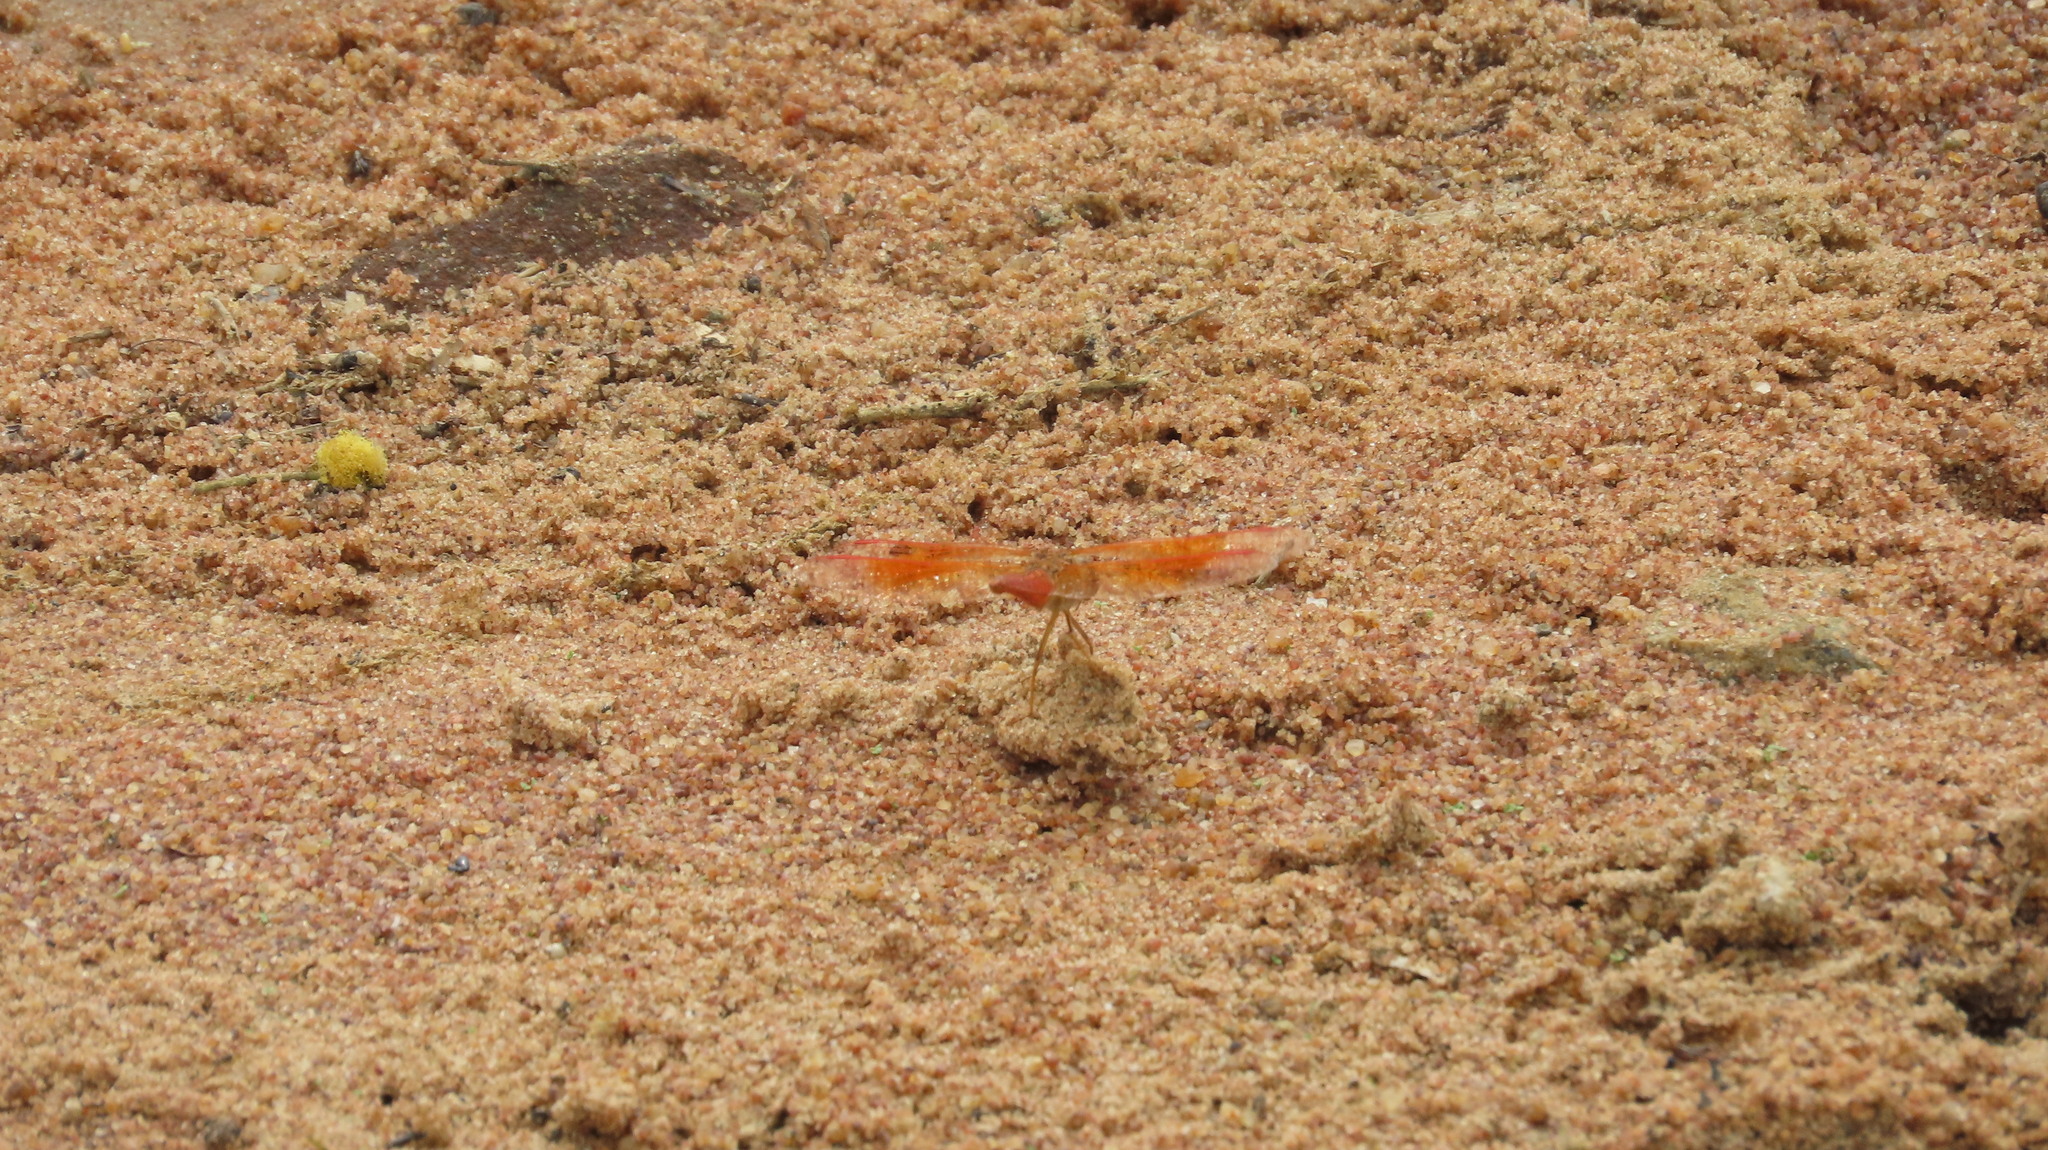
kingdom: Animalia
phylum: Arthropoda
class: Insecta
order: Odonata
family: Libellulidae
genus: Brachythemis
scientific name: Brachythemis contaminata
